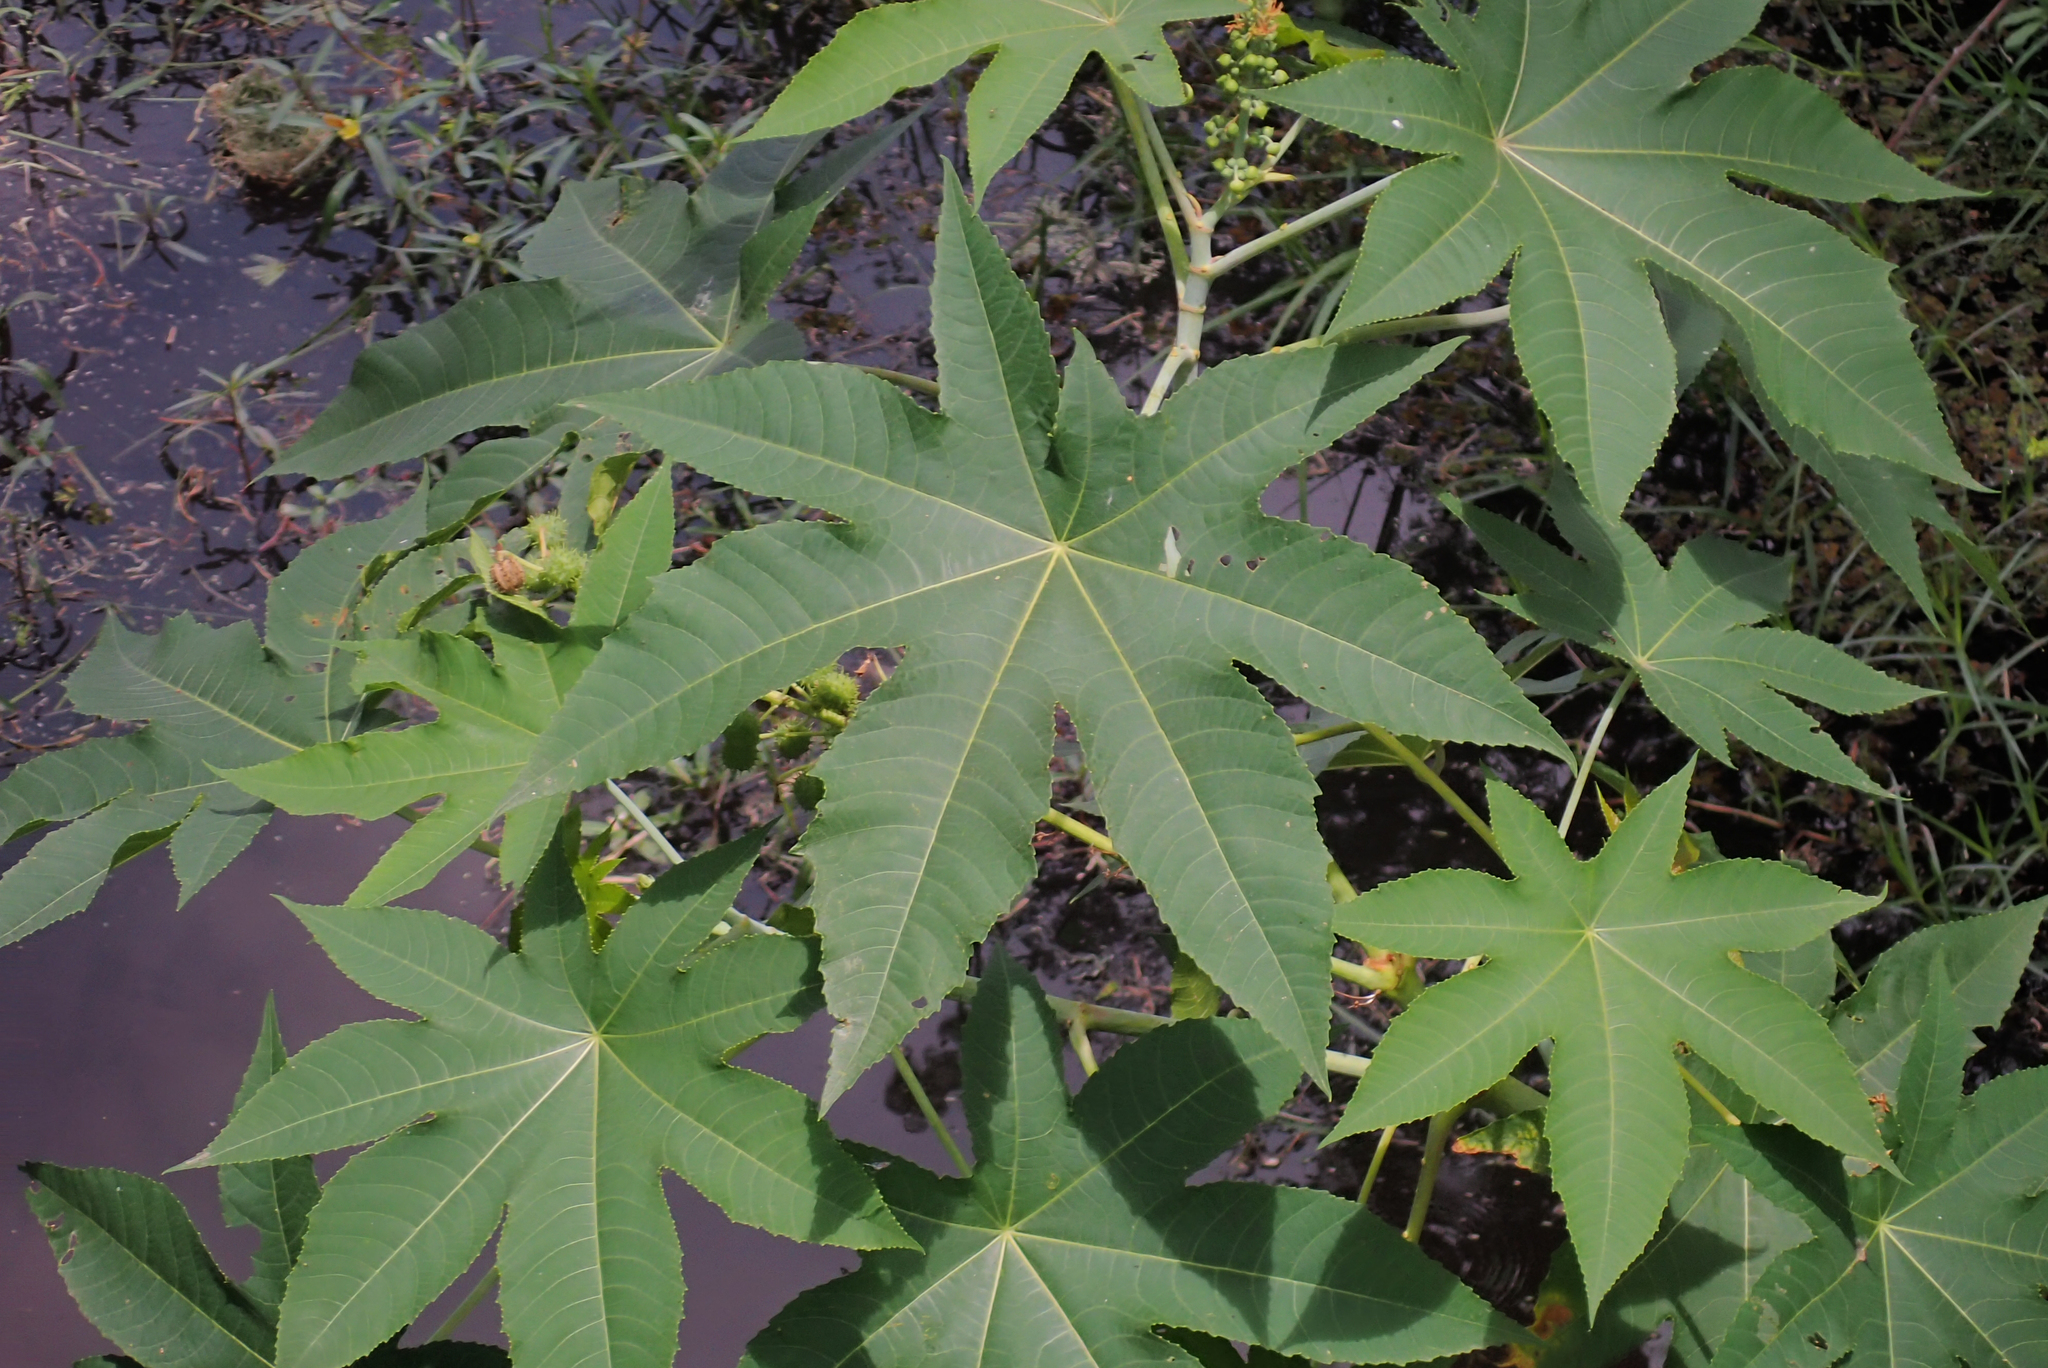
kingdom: Plantae
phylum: Tracheophyta
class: Magnoliopsida
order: Malpighiales
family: Euphorbiaceae
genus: Ricinus
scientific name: Ricinus communis
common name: Castor-oil-plant
